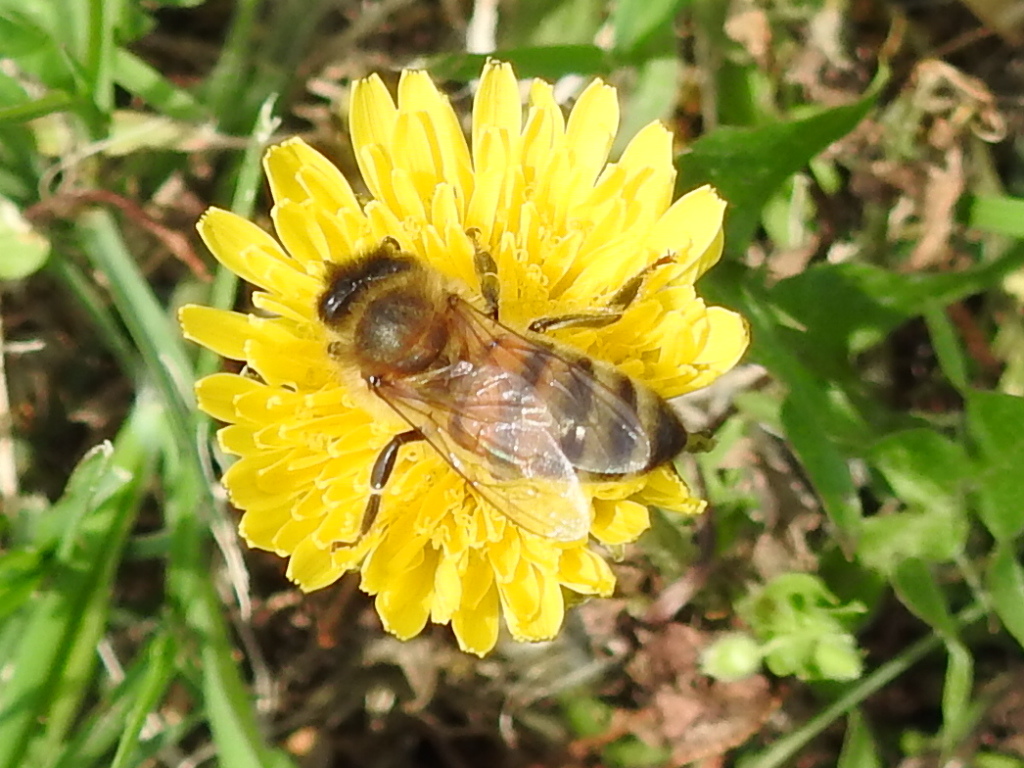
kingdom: Animalia
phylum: Arthropoda
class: Insecta
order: Hymenoptera
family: Apidae
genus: Apis
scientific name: Apis mellifera
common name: Honey bee
